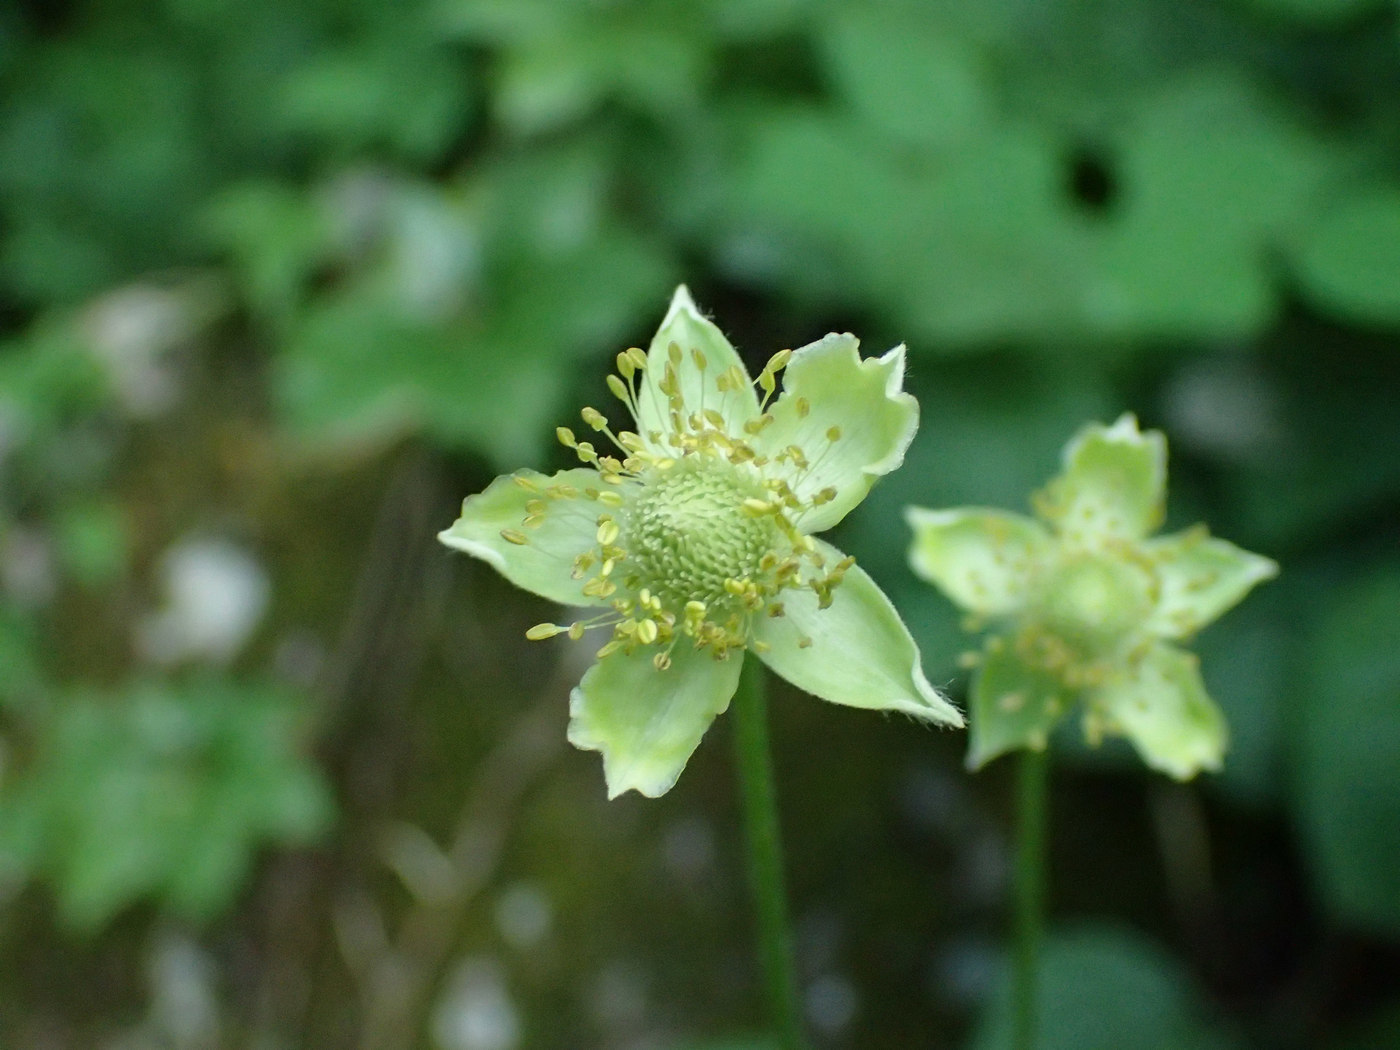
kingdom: Plantae
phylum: Tracheophyta
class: Magnoliopsida
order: Ranunculales
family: Ranunculaceae
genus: Anemone
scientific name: Anemone virginiana
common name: Tall anemone
